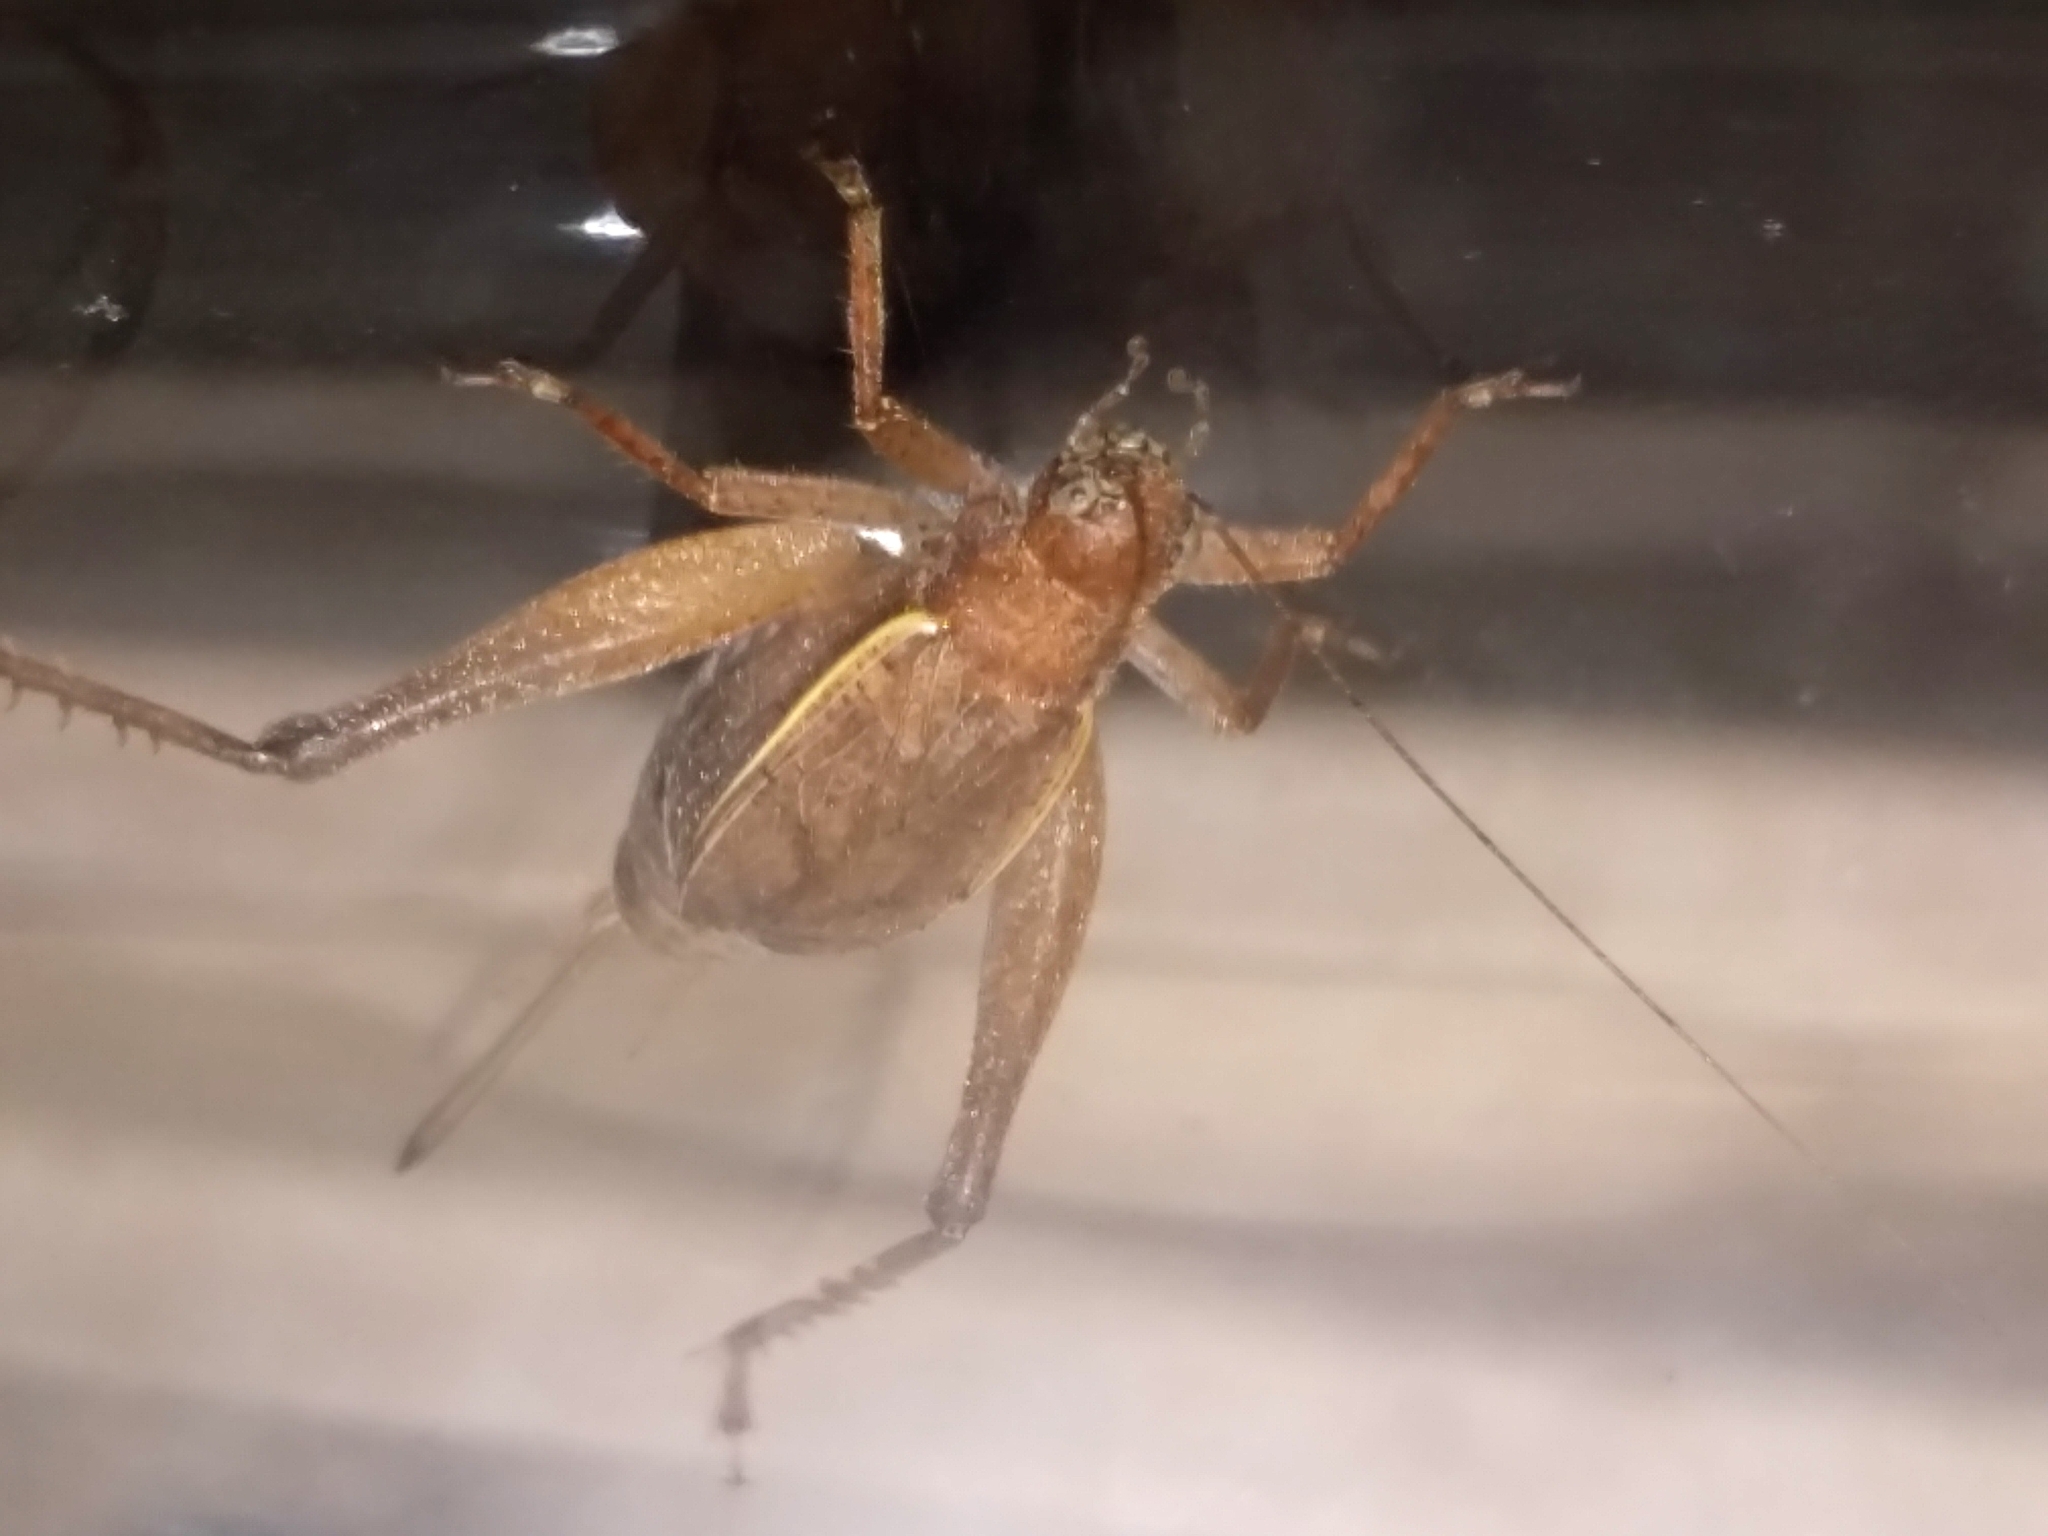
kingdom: Animalia
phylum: Arthropoda
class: Insecta
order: Orthoptera
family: Gryllidae
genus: Hapithus
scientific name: Hapithus agitator
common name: Restless bush cricket
